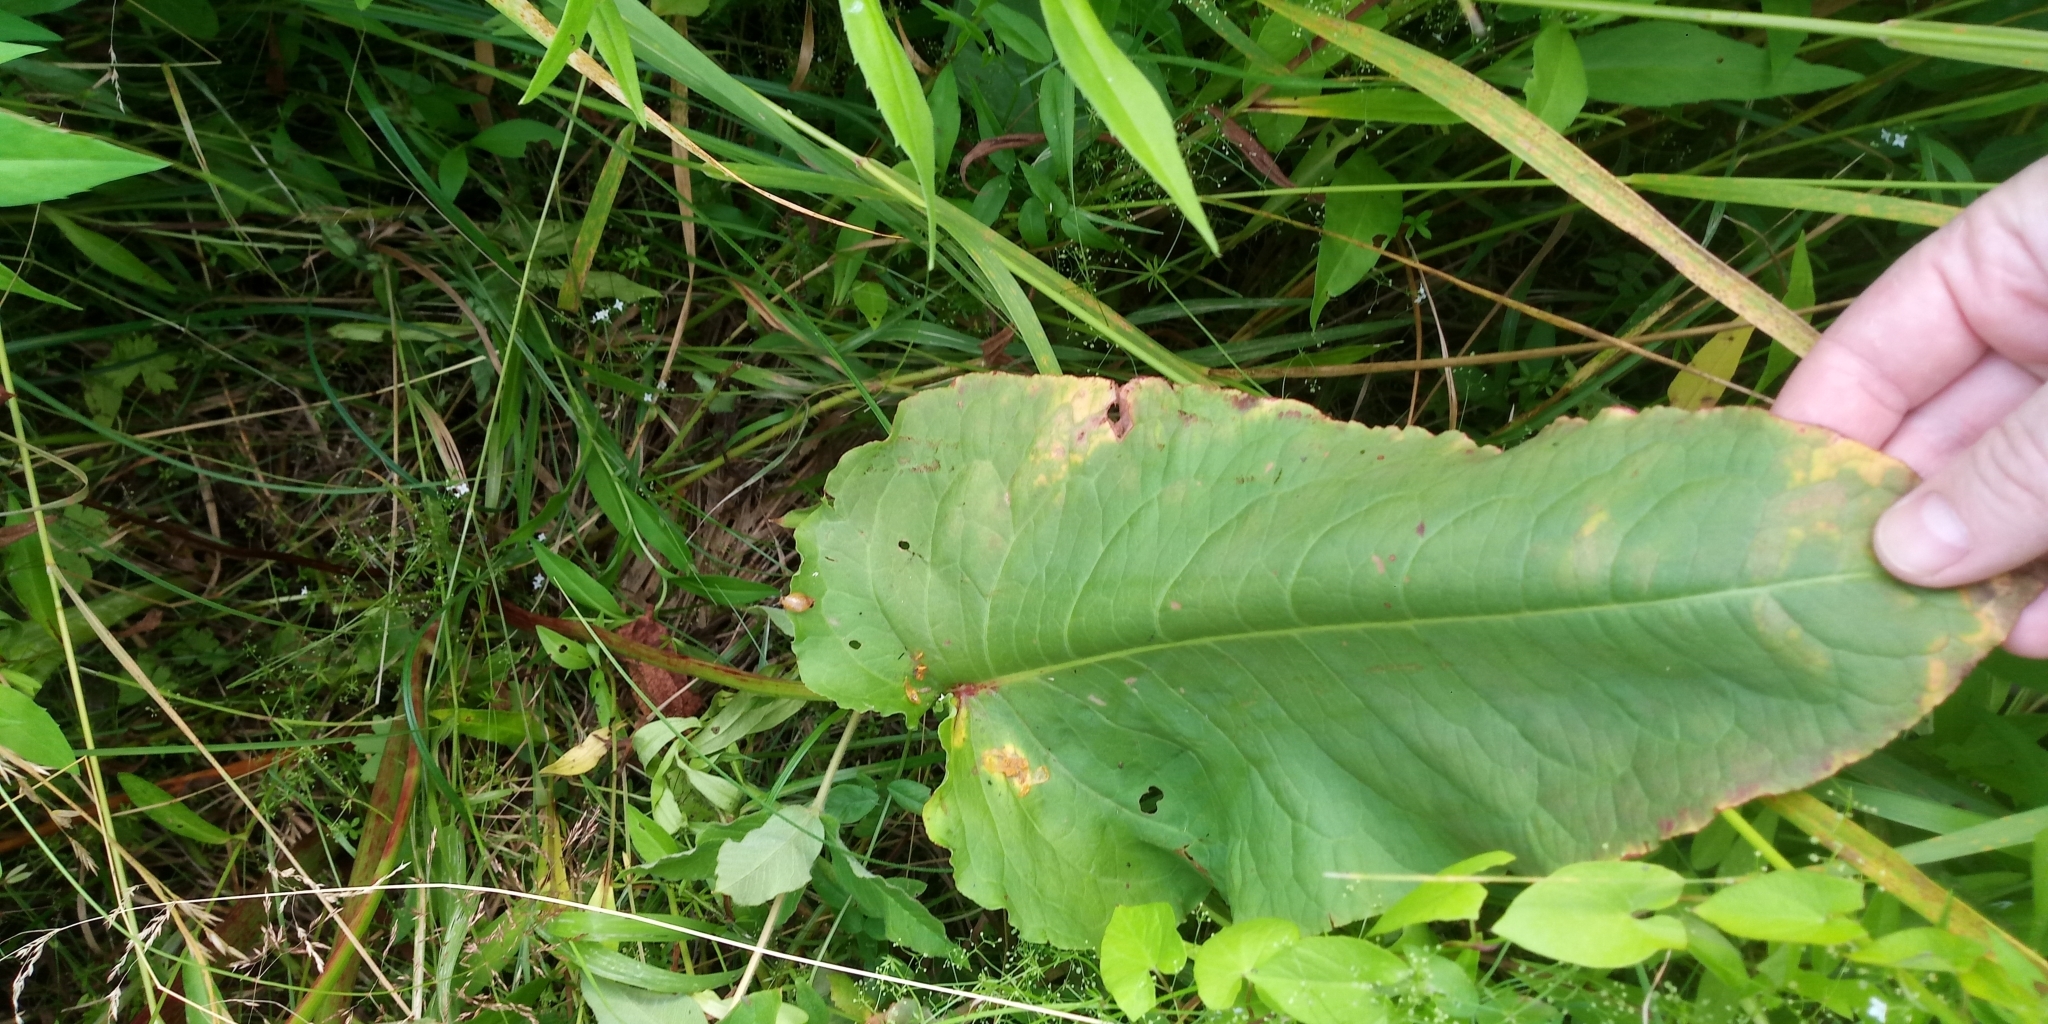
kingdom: Plantae
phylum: Tracheophyta
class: Magnoliopsida
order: Caryophyllales
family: Polygonaceae
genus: Rumex
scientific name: Rumex aquaticus
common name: Scottish dock
